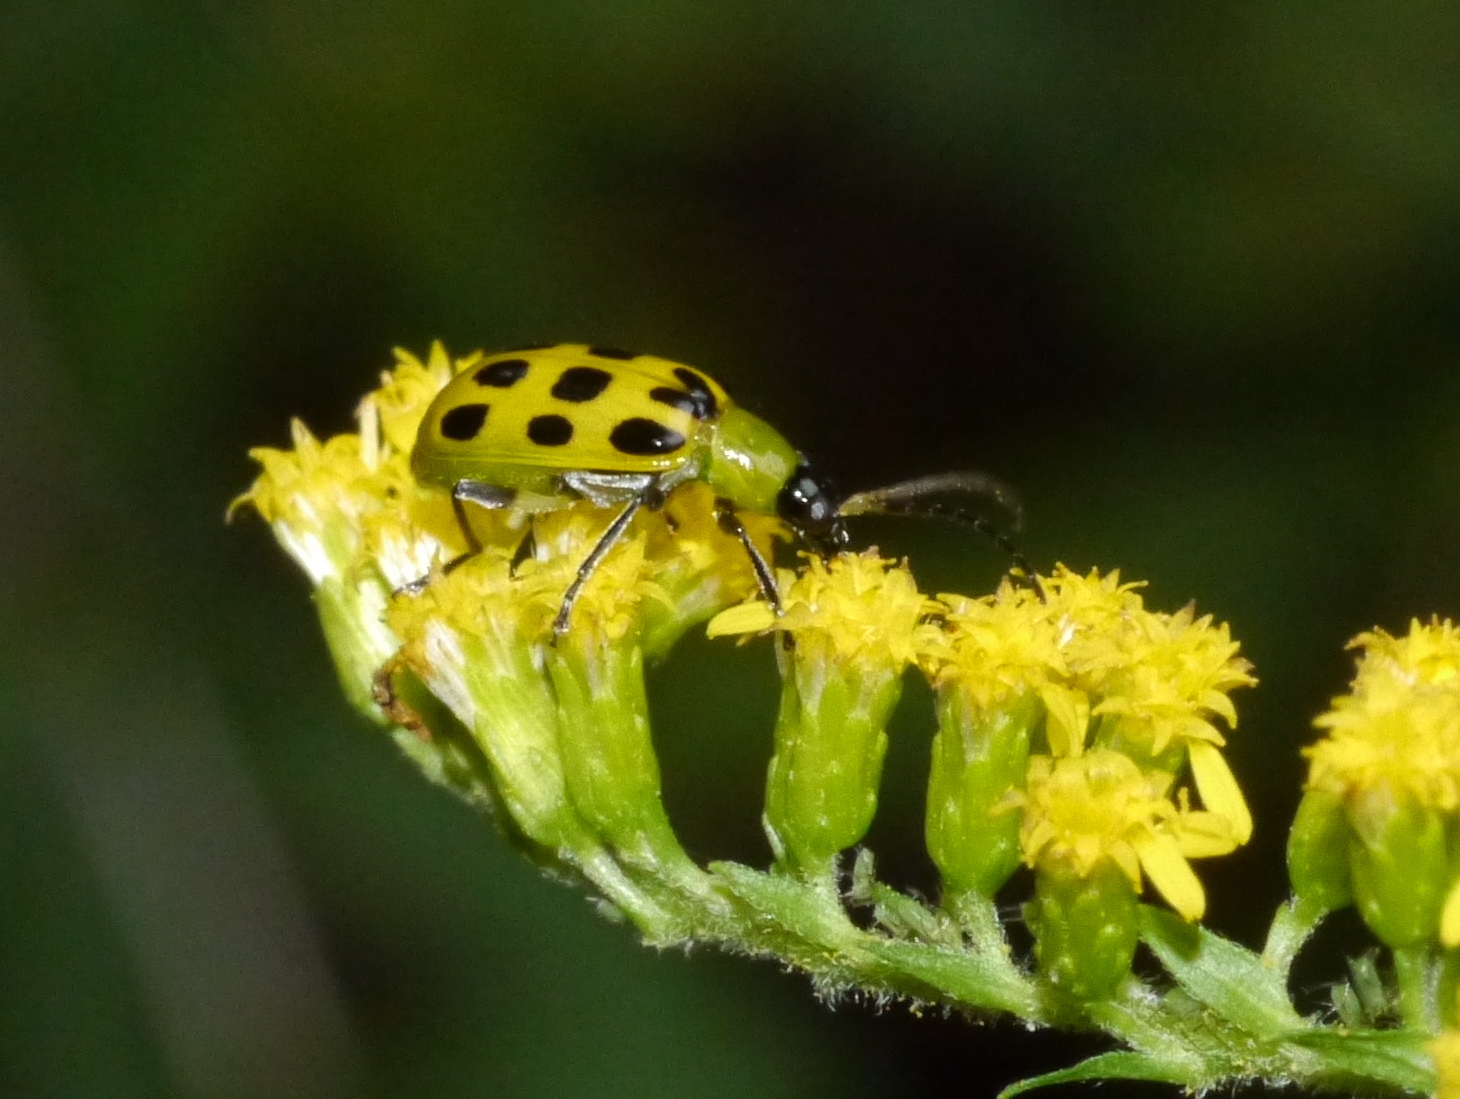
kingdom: Animalia
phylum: Arthropoda
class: Insecta
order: Coleoptera
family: Chrysomelidae
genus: Diabrotica
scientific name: Diabrotica undecimpunctata
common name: Spotted cucumber beetle
